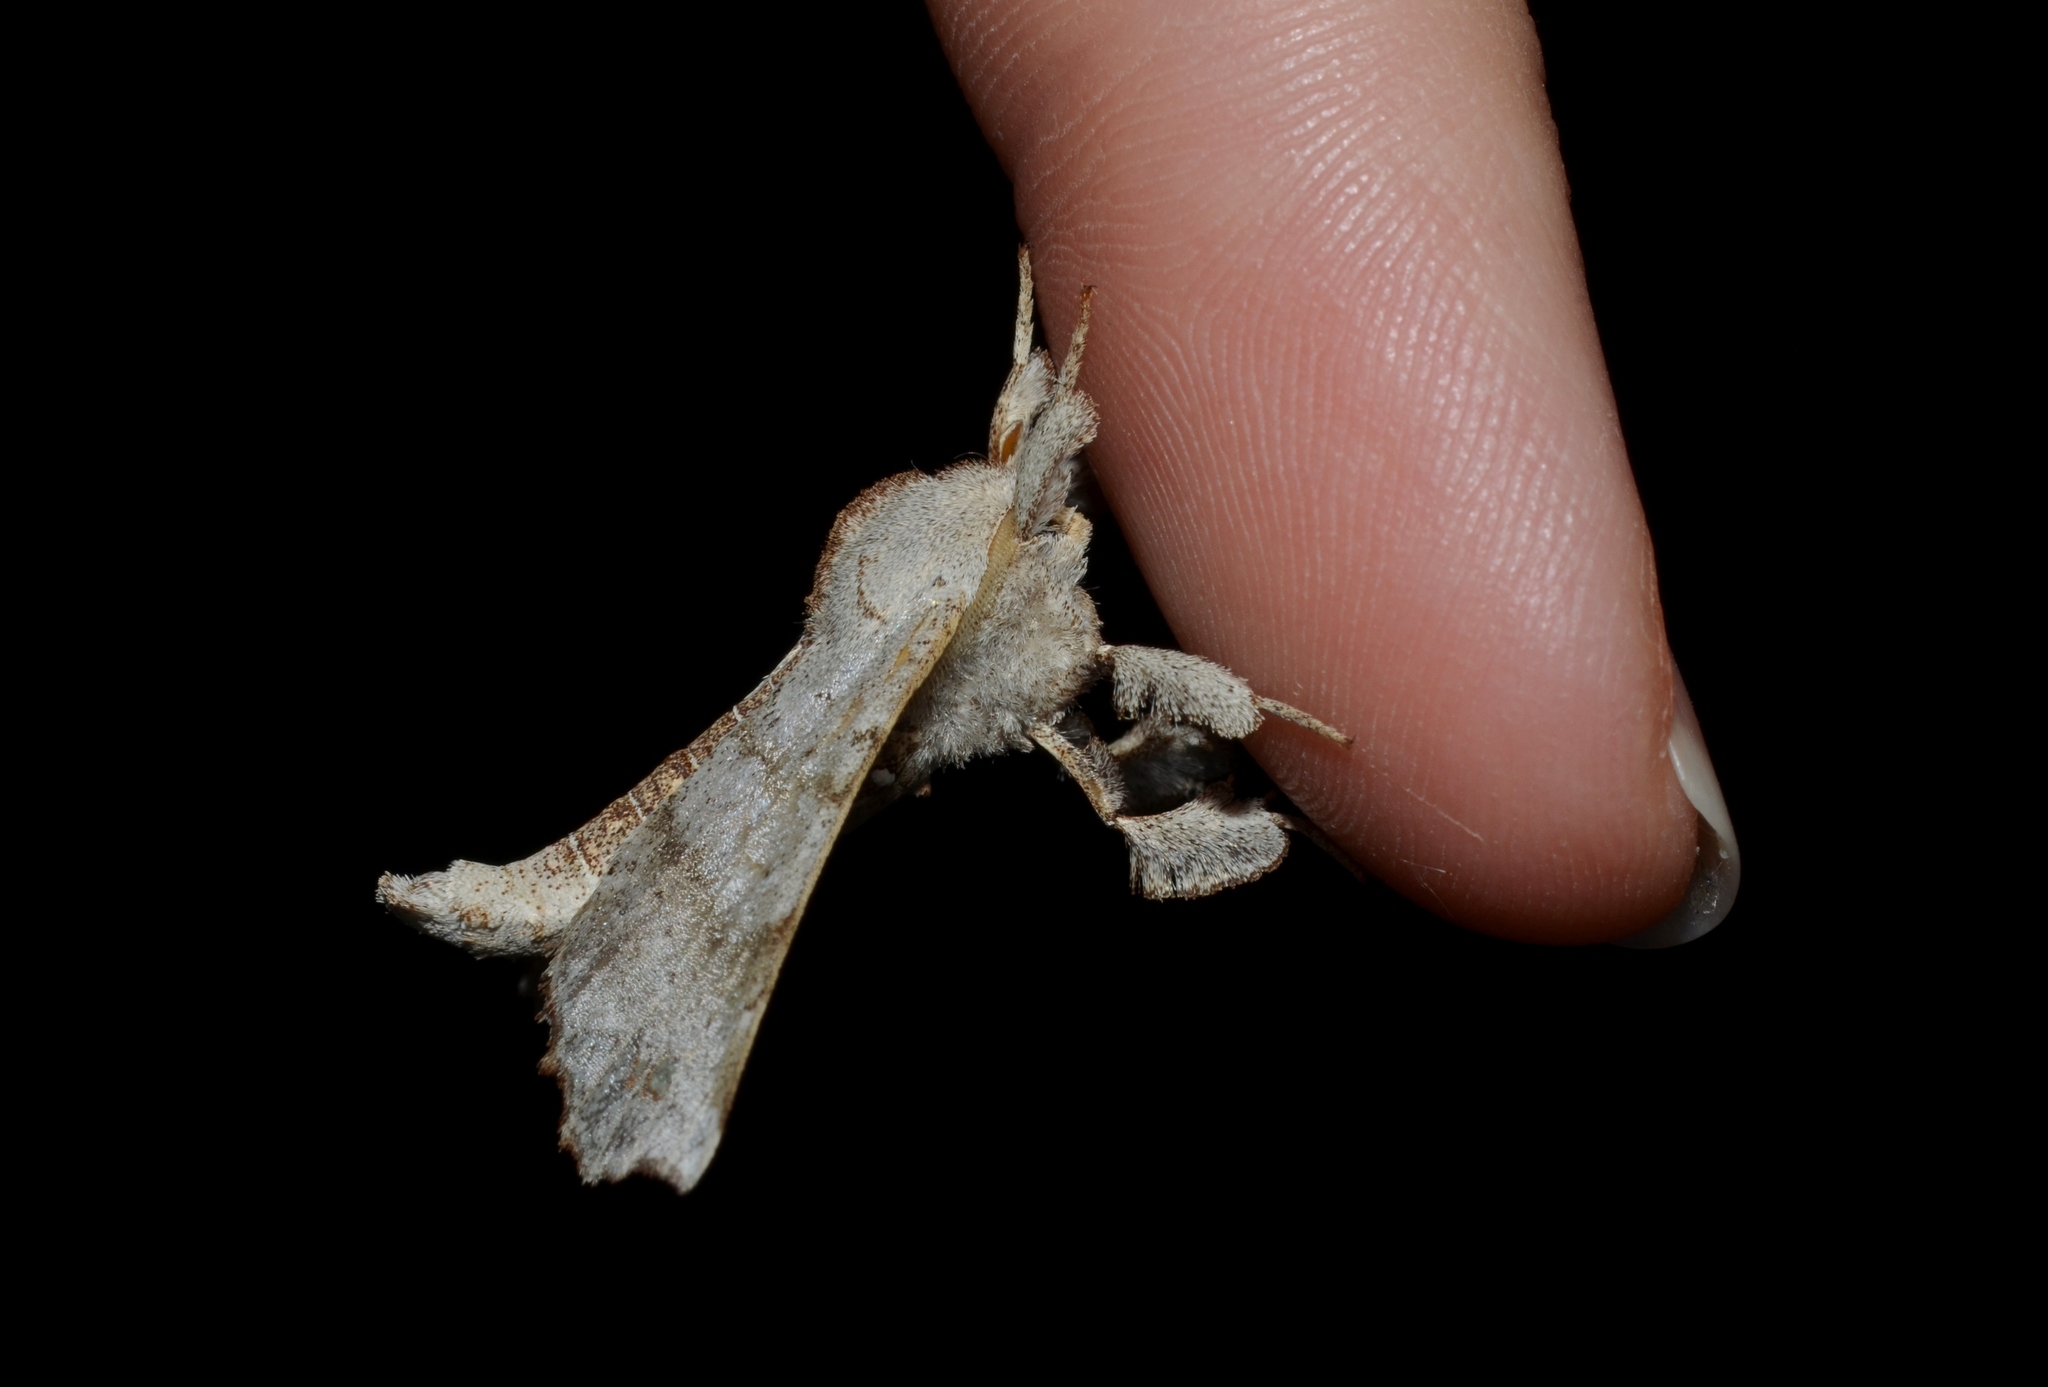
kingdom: Animalia
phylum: Arthropoda
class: Insecta
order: Lepidoptera
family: Apatelodidae
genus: Olceclostera
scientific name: Olceclostera angelica
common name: Angel moth
